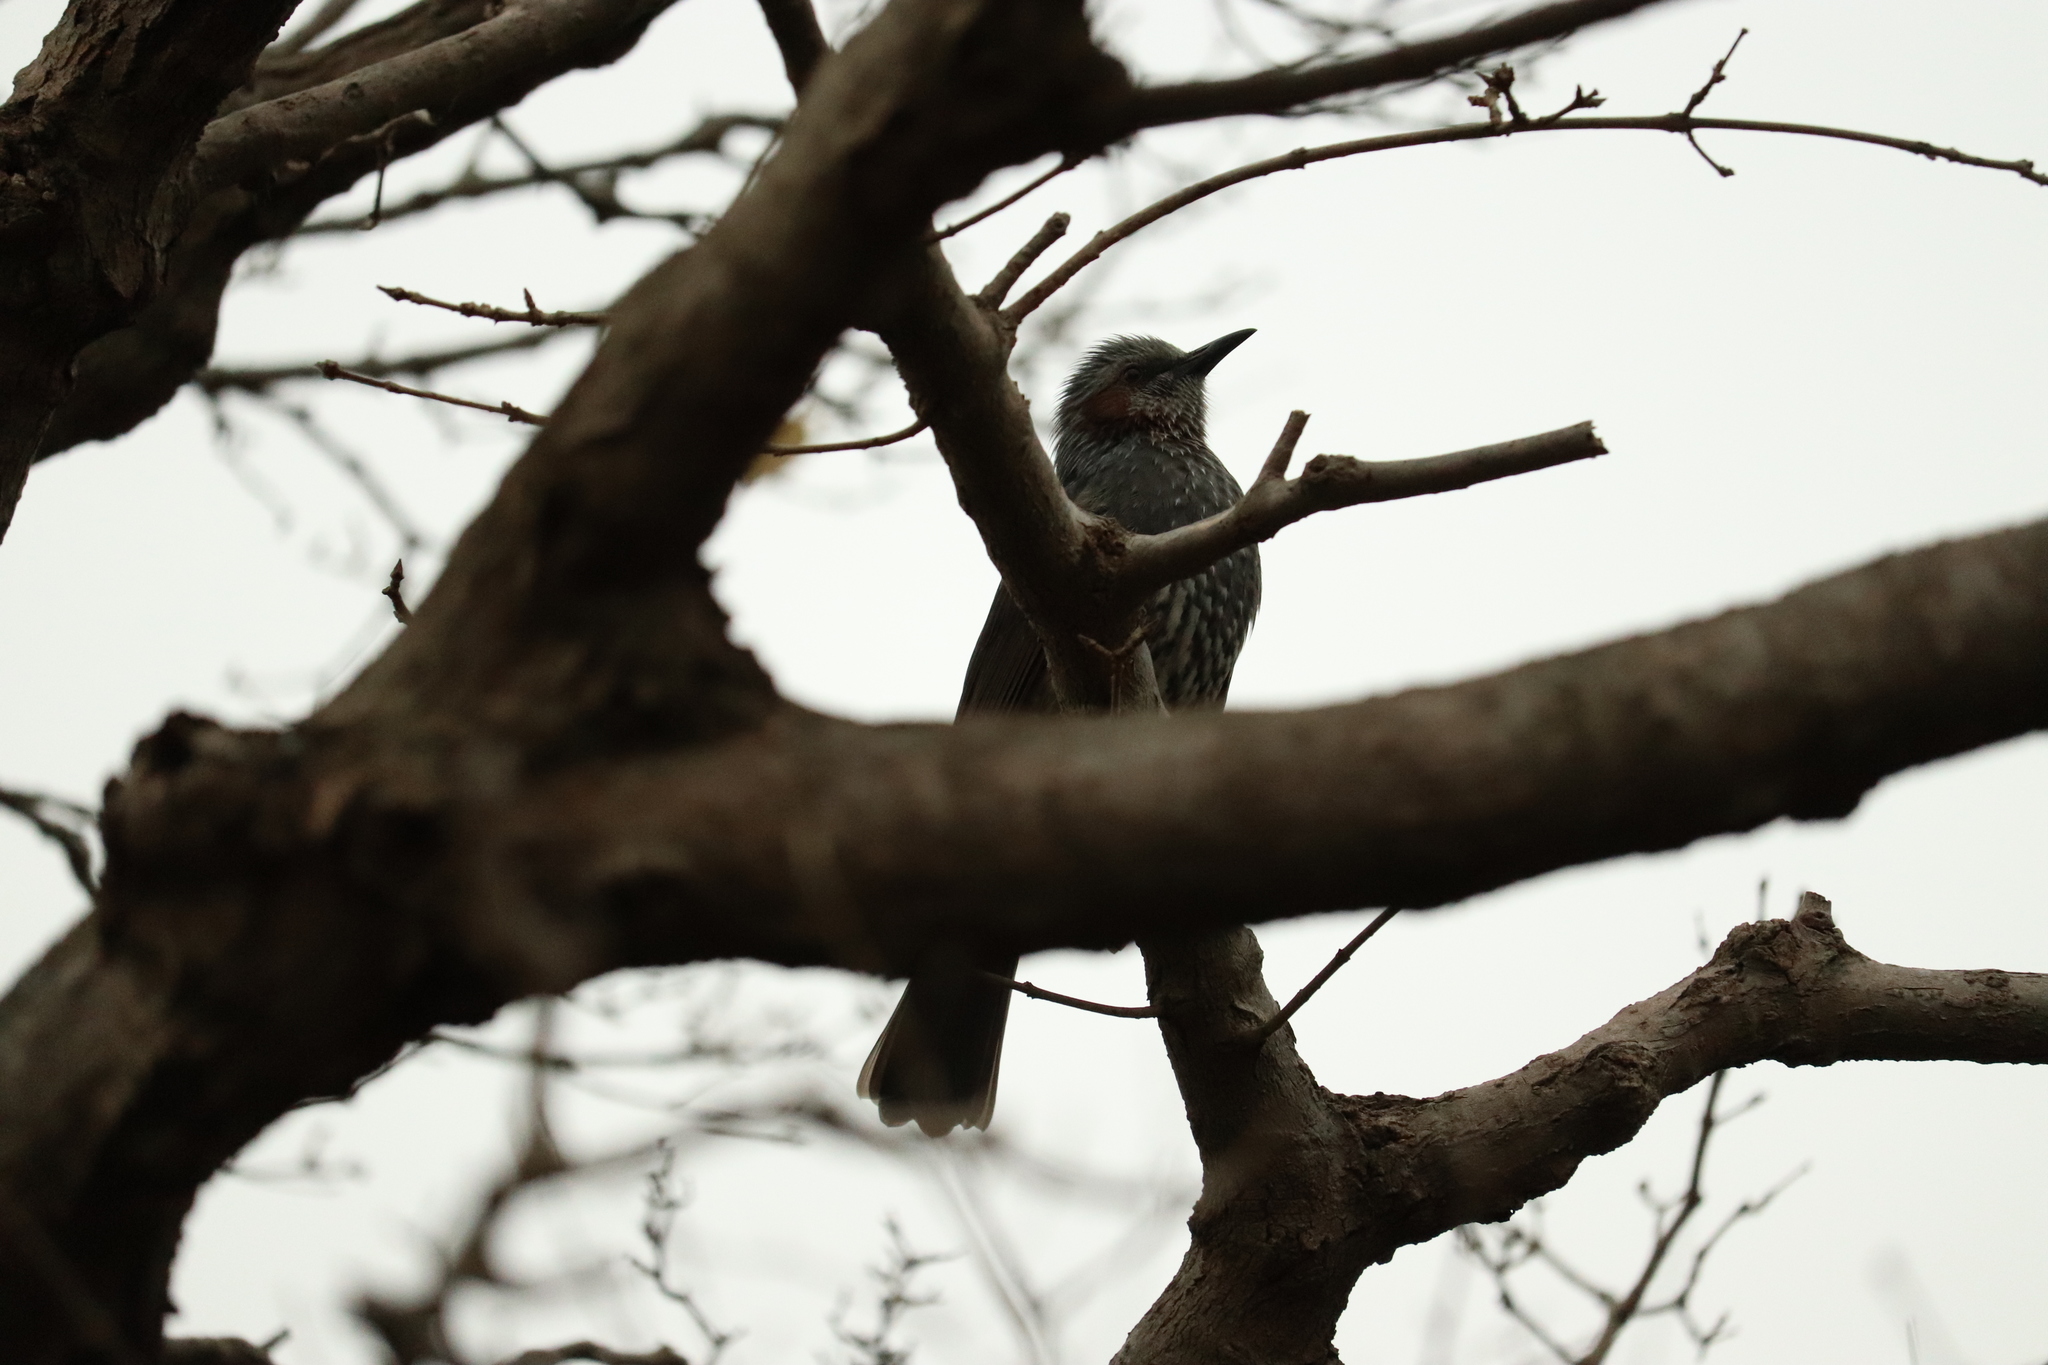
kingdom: Animalia
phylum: Chordata
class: Aves
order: Passeriformes
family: Pycnonotidae
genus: Hypsipetes
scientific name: Hypsipetes amaurotis
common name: Brown-eared bulbul
